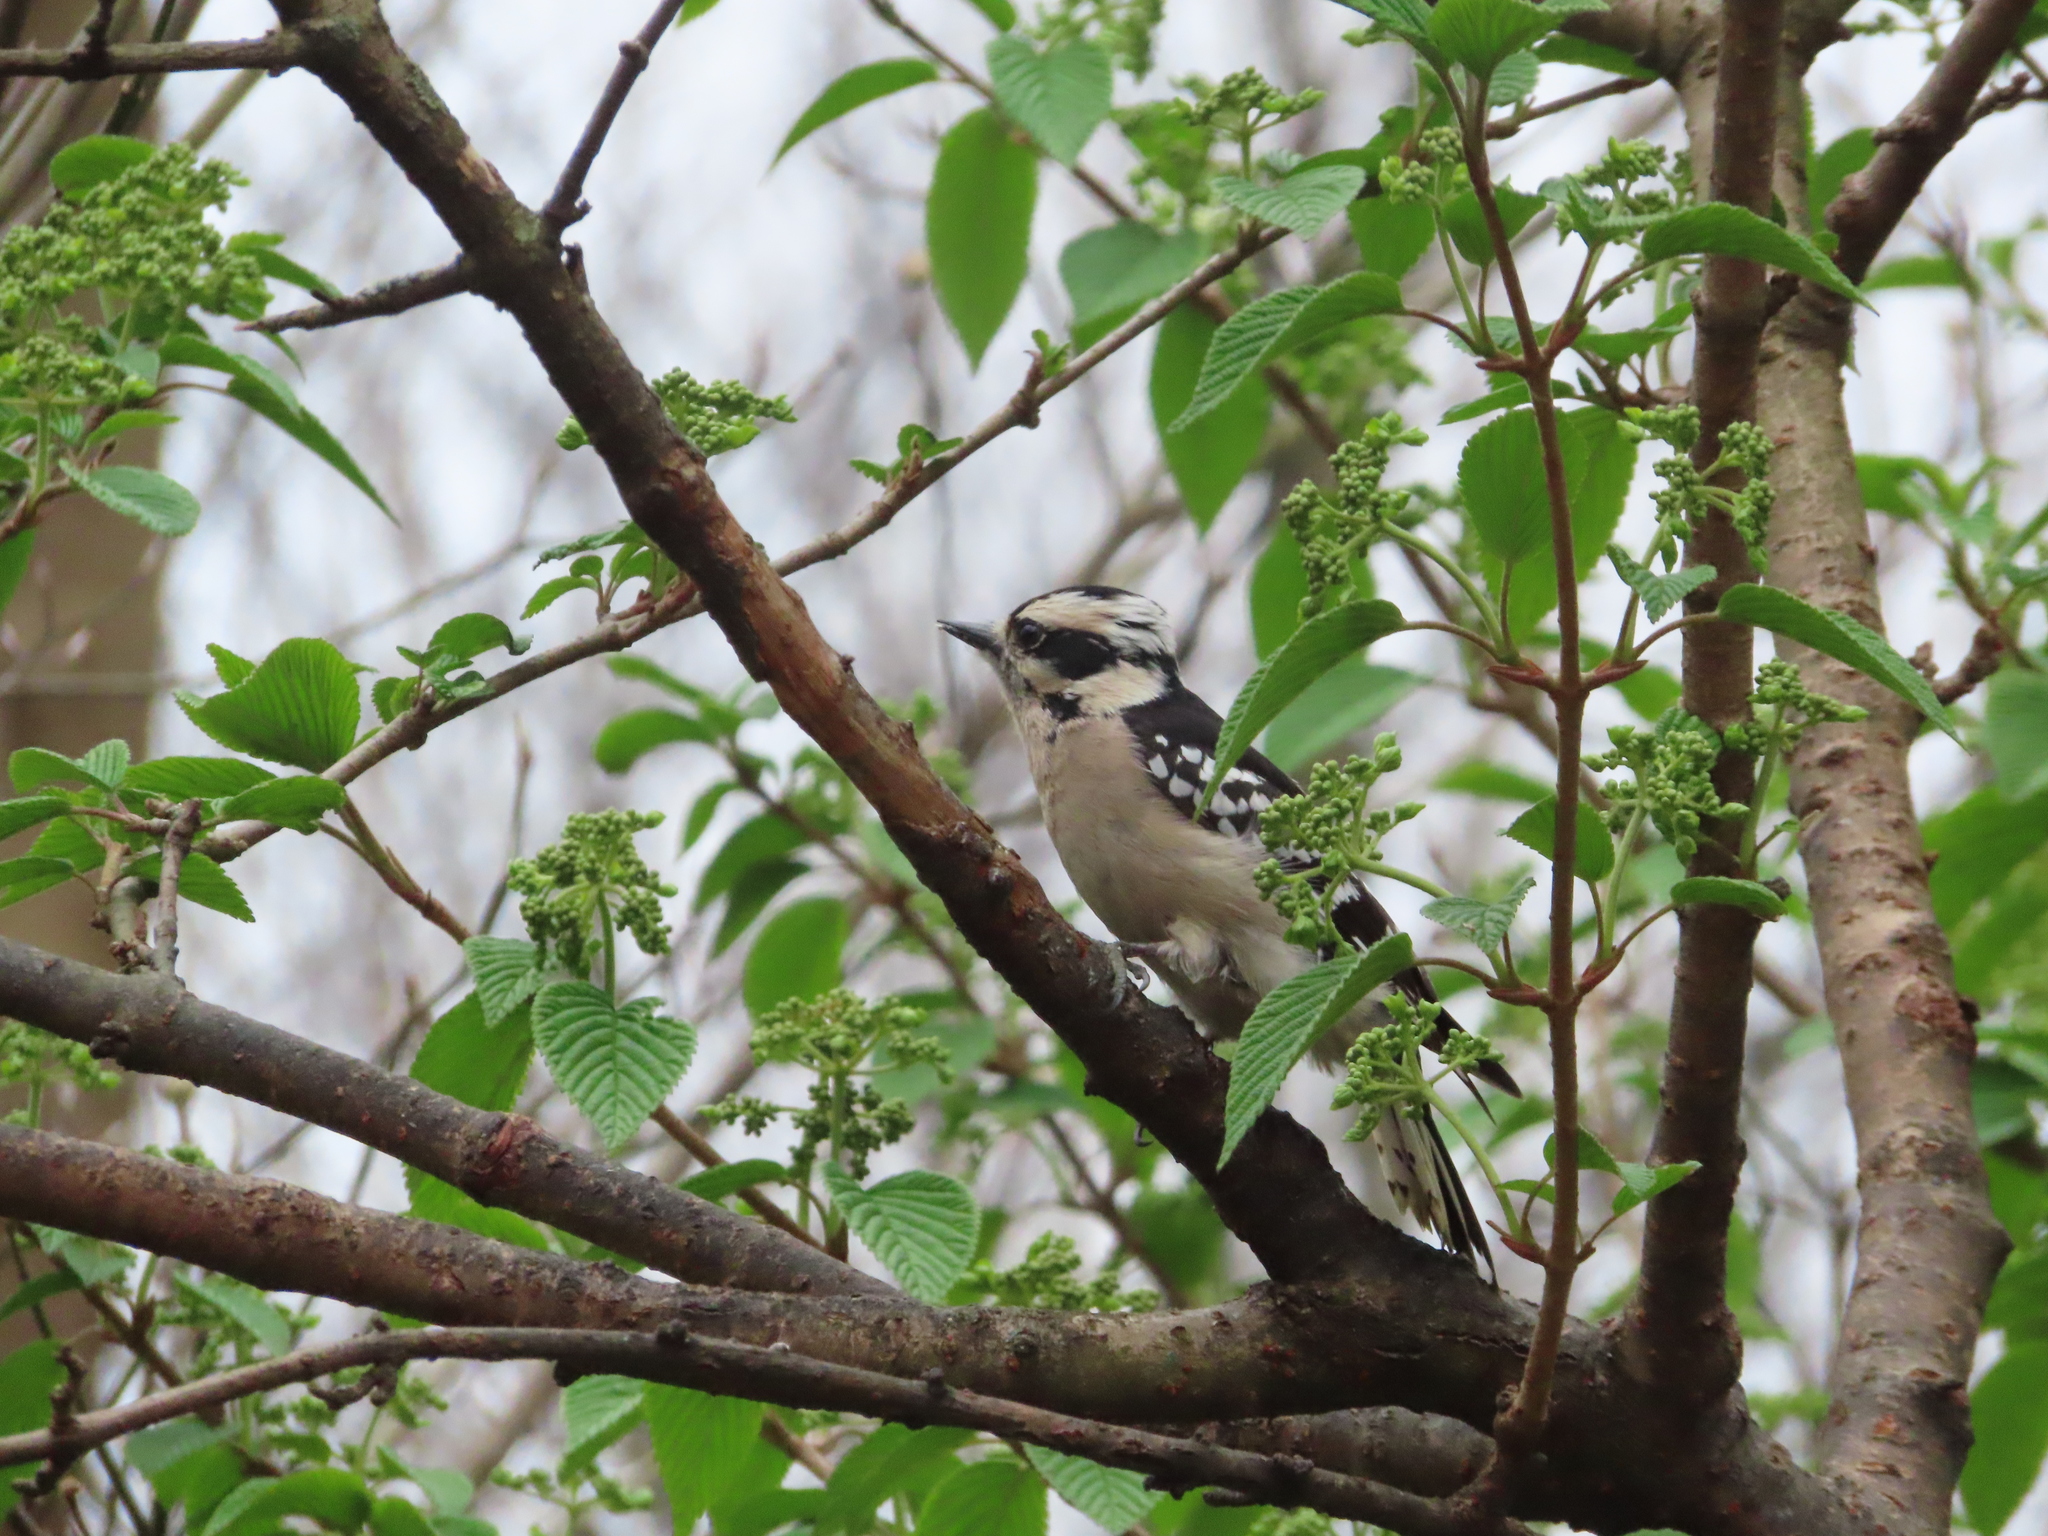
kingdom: Animalia
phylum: Chordata
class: Aves
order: Piciformes
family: Picidae
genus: Dryobates
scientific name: Dryobates pubescens
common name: Downy woodpecker
